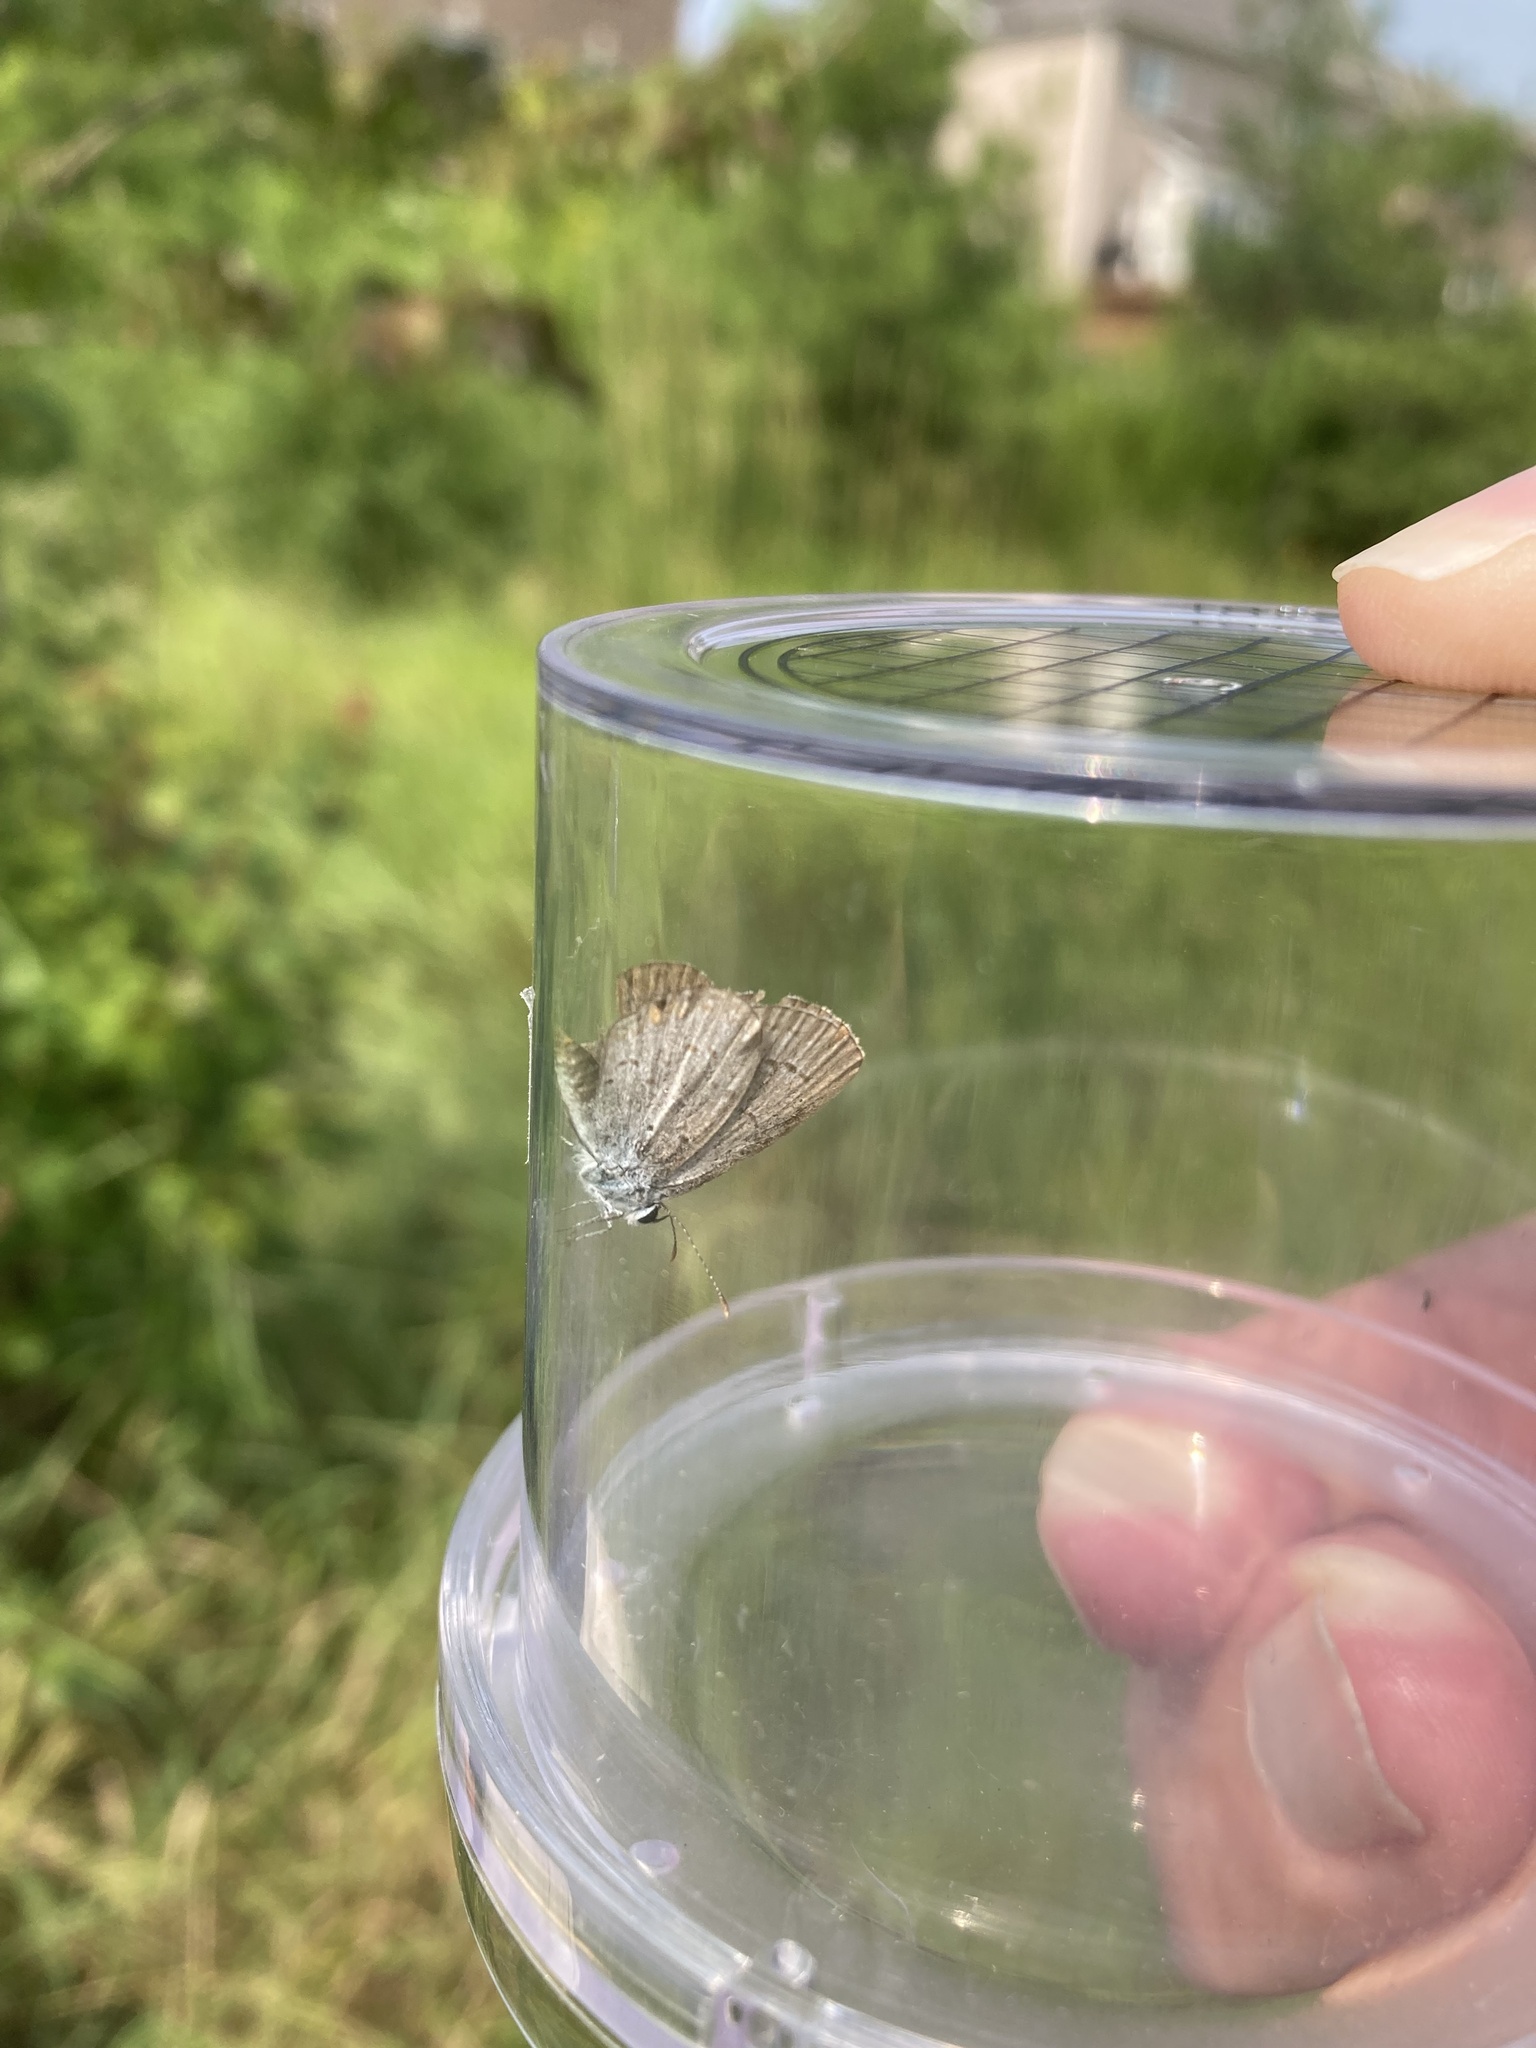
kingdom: Animalia
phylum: Arthropoda
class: Insecta
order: Lepidoptera
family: Lycaenidae
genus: Elkalyce
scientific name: Elkalyce comyntas
